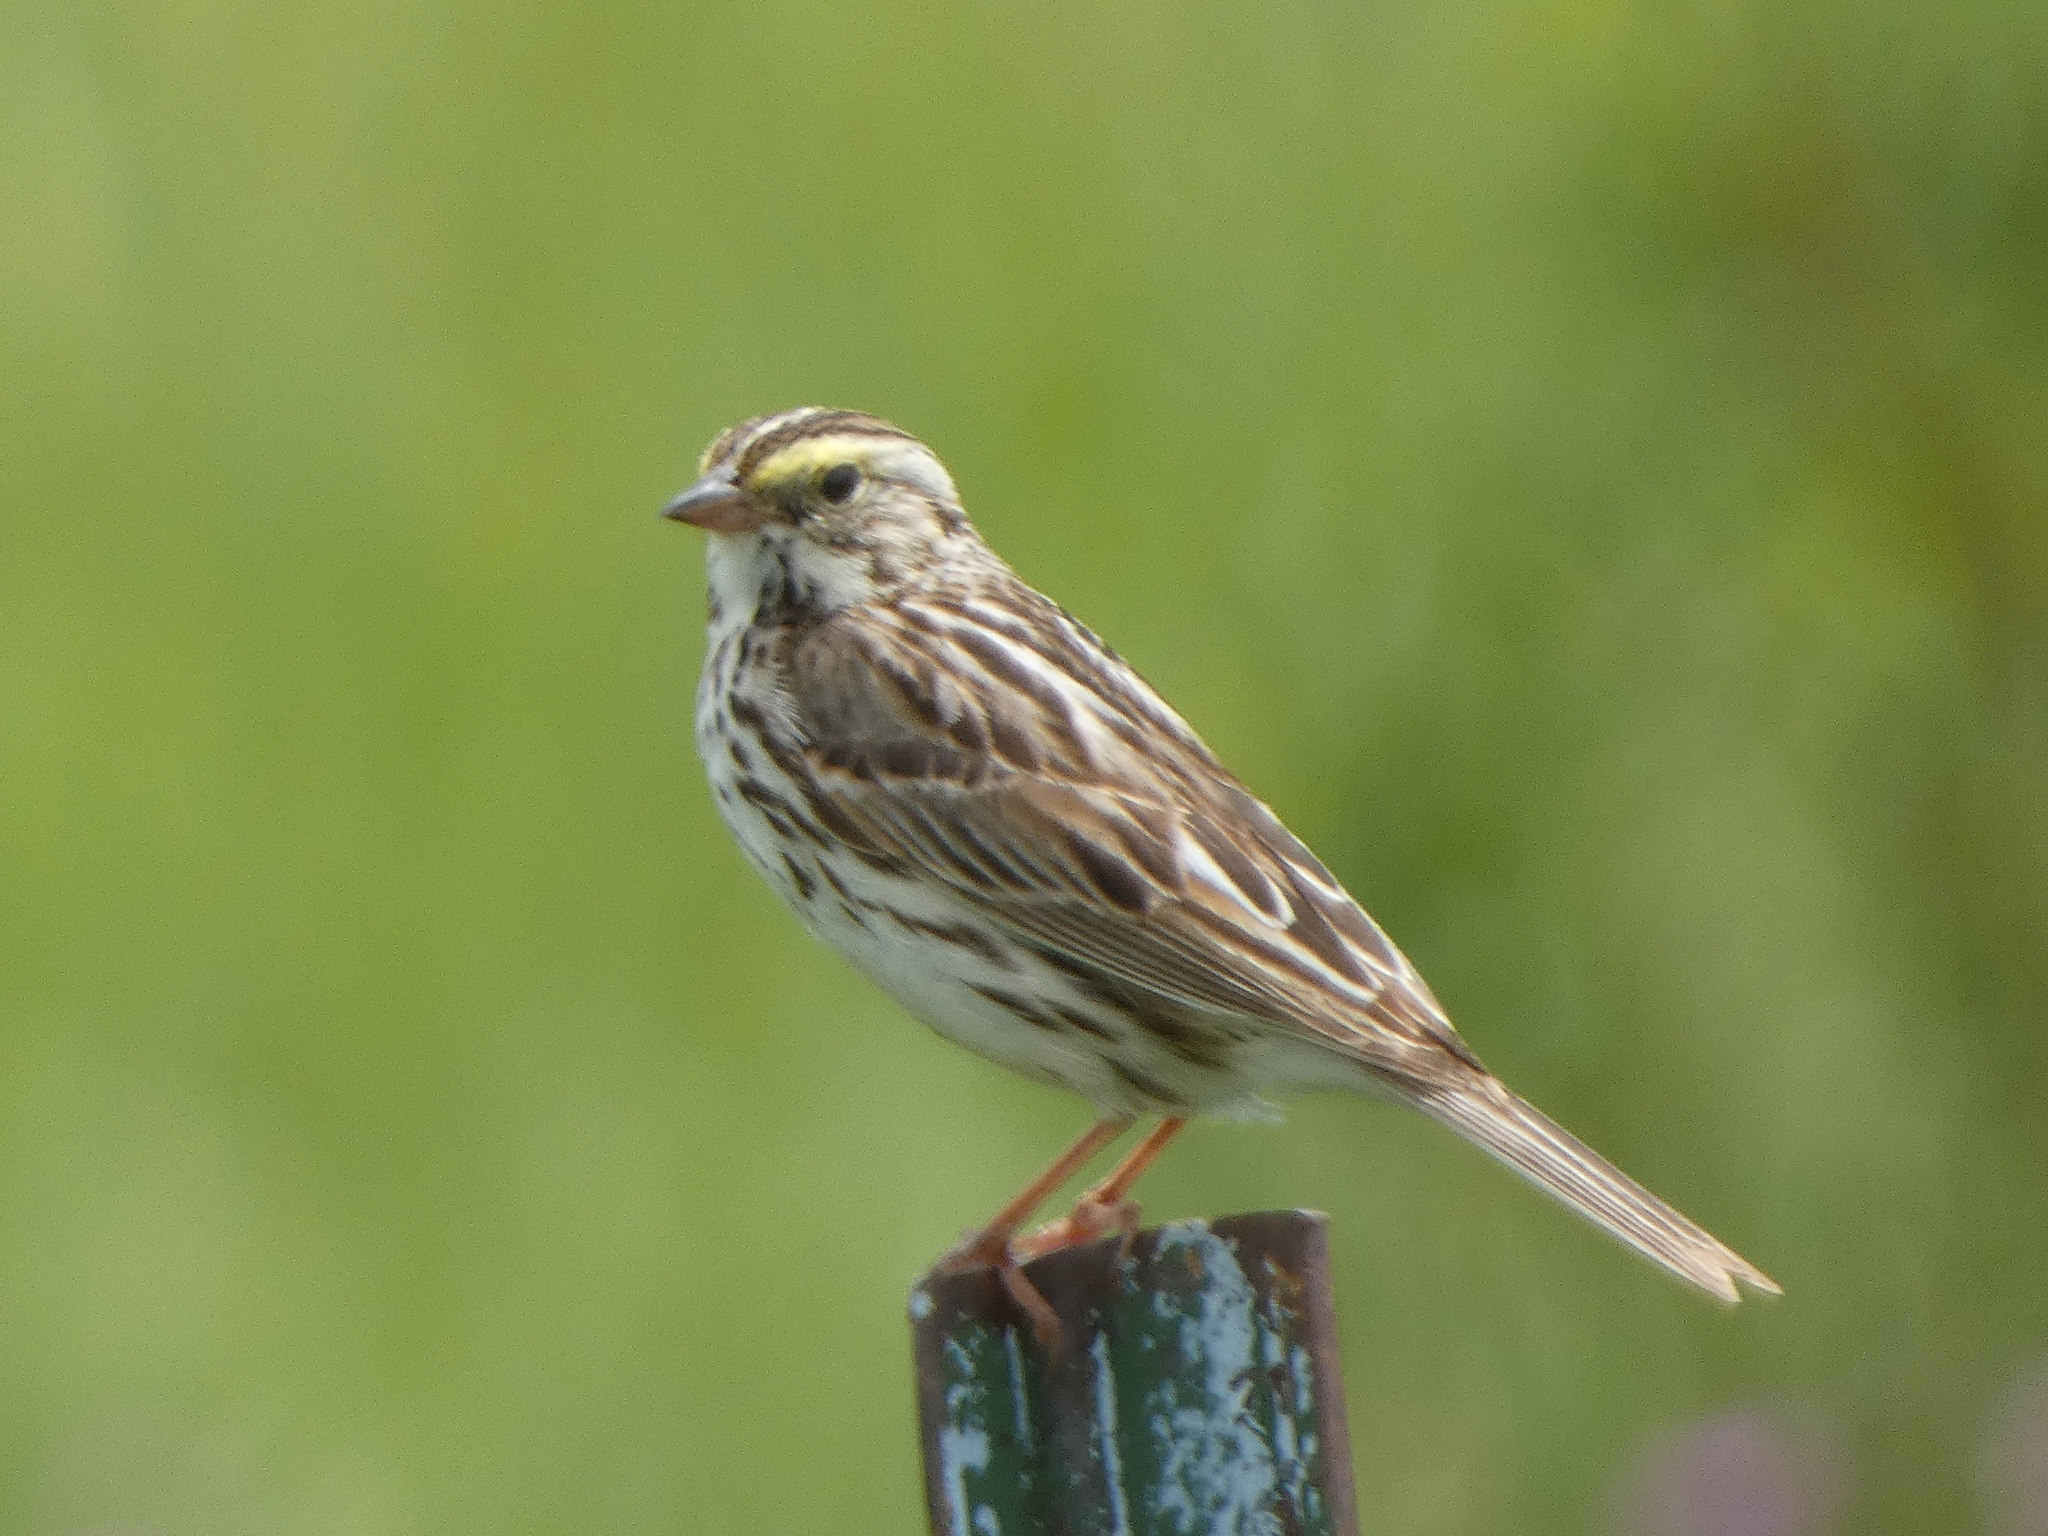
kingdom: Animalia
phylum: Chordata
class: Aves
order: Passeriformes
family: Passerellidae
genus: Passerculus
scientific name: Passerculus sandwichensis
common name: Savannah sparrow
